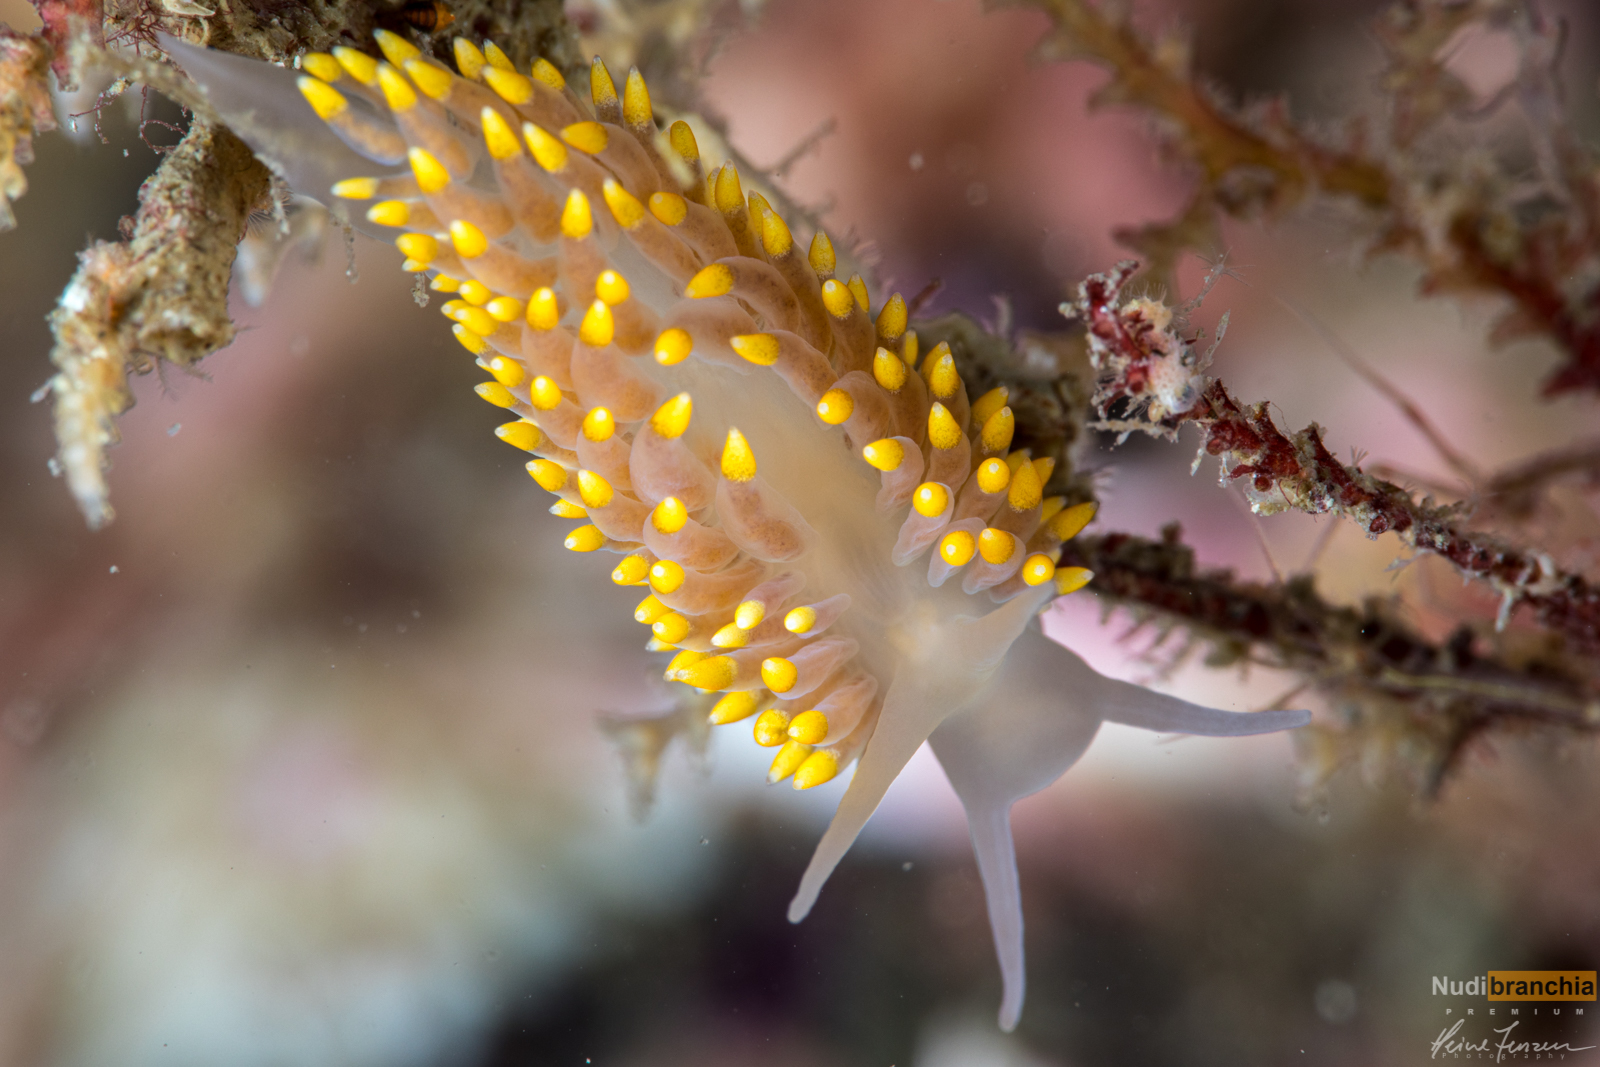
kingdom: Animalia
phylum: Mollusca
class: Gastropoda
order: Nudibranchia
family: Eubranchidae
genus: Eubranchus
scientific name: Eubranchus tricolor
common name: Painted balloon aeolis
